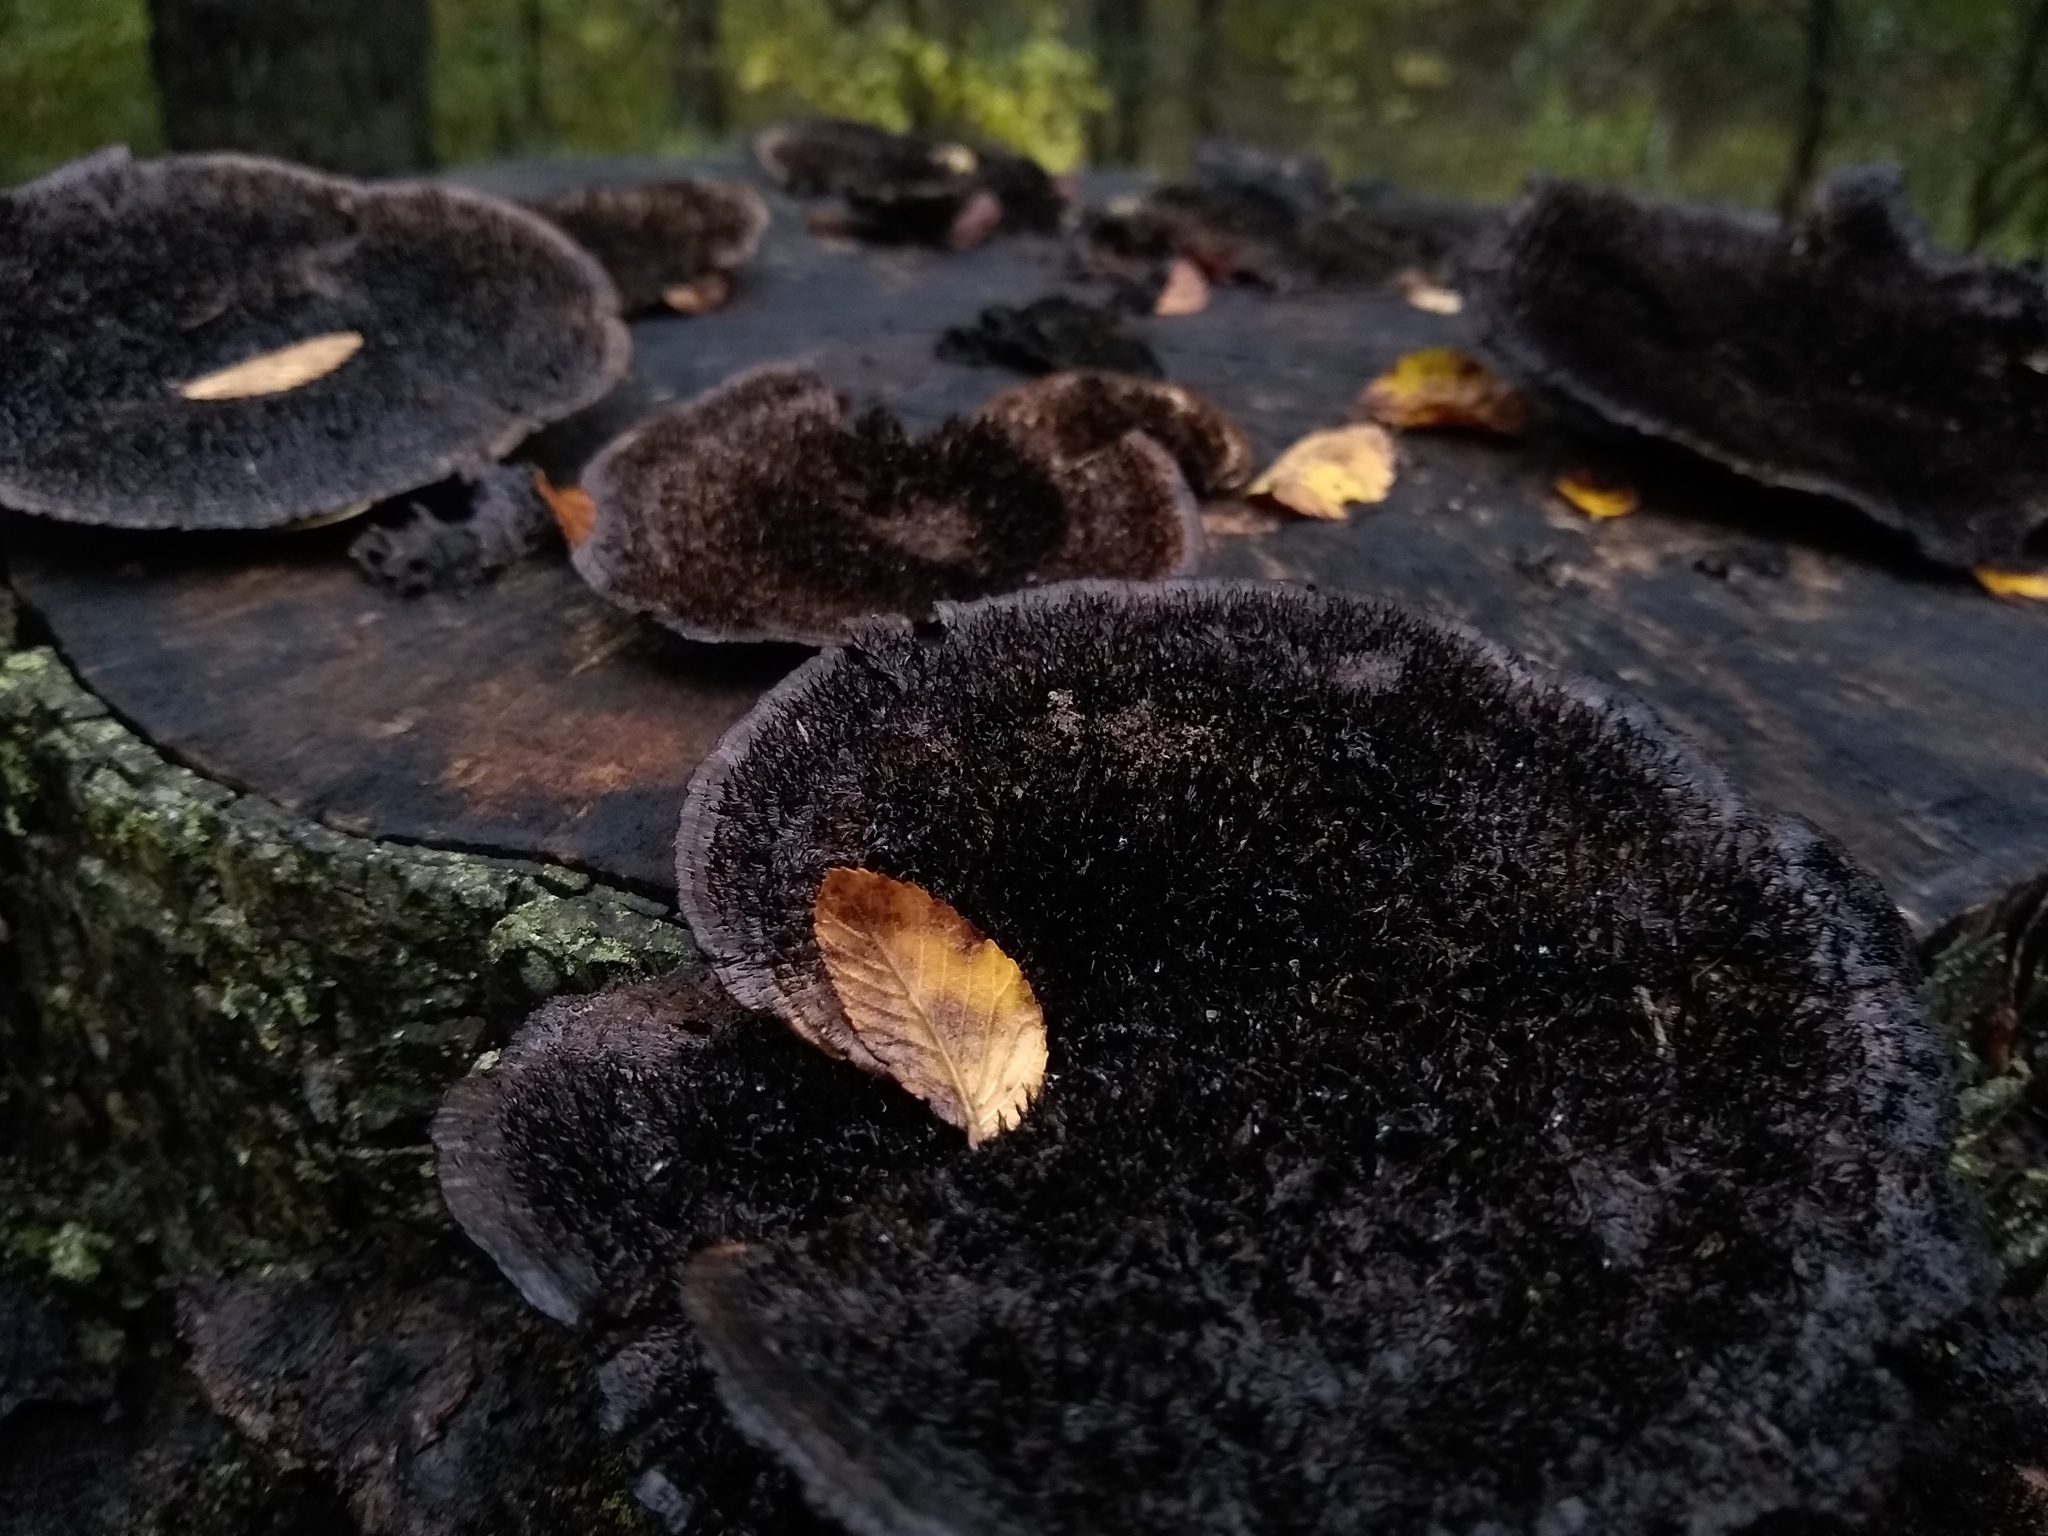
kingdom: Fungi
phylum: Basidiomycota
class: Agaricomycetes
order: Polyporales
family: Cerrenaceae
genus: Cerrena
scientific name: Cerrena hydnoides
